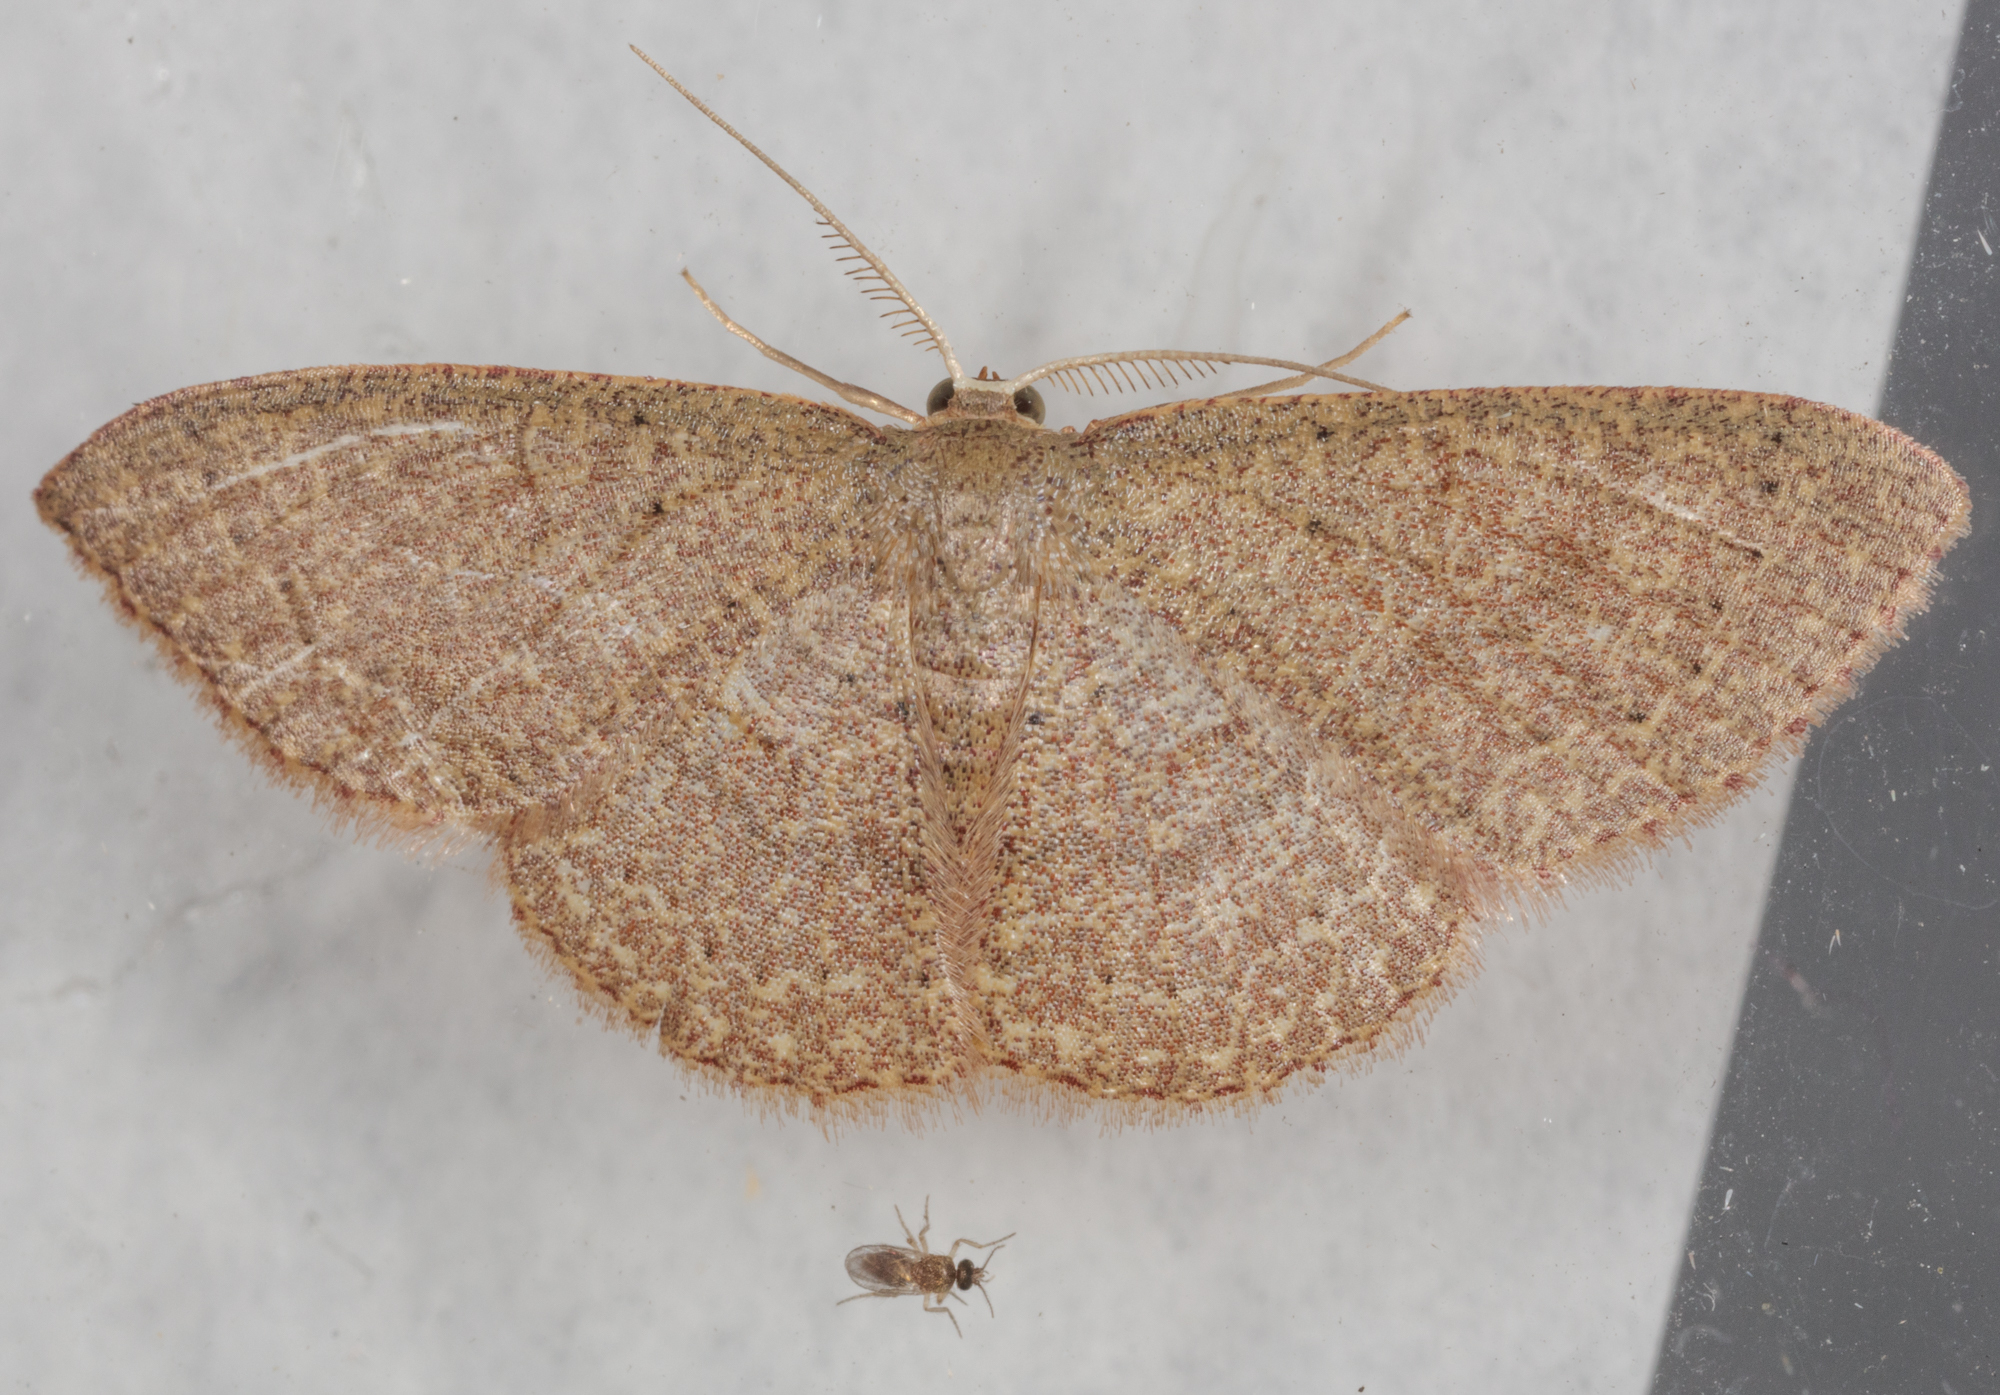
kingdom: Animalia
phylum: Arthropoda
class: Insecta
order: Lepidoptera
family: Geometridae
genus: Pleuroprucha
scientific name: Pleuroprucha insulsaria
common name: Common tan wave
